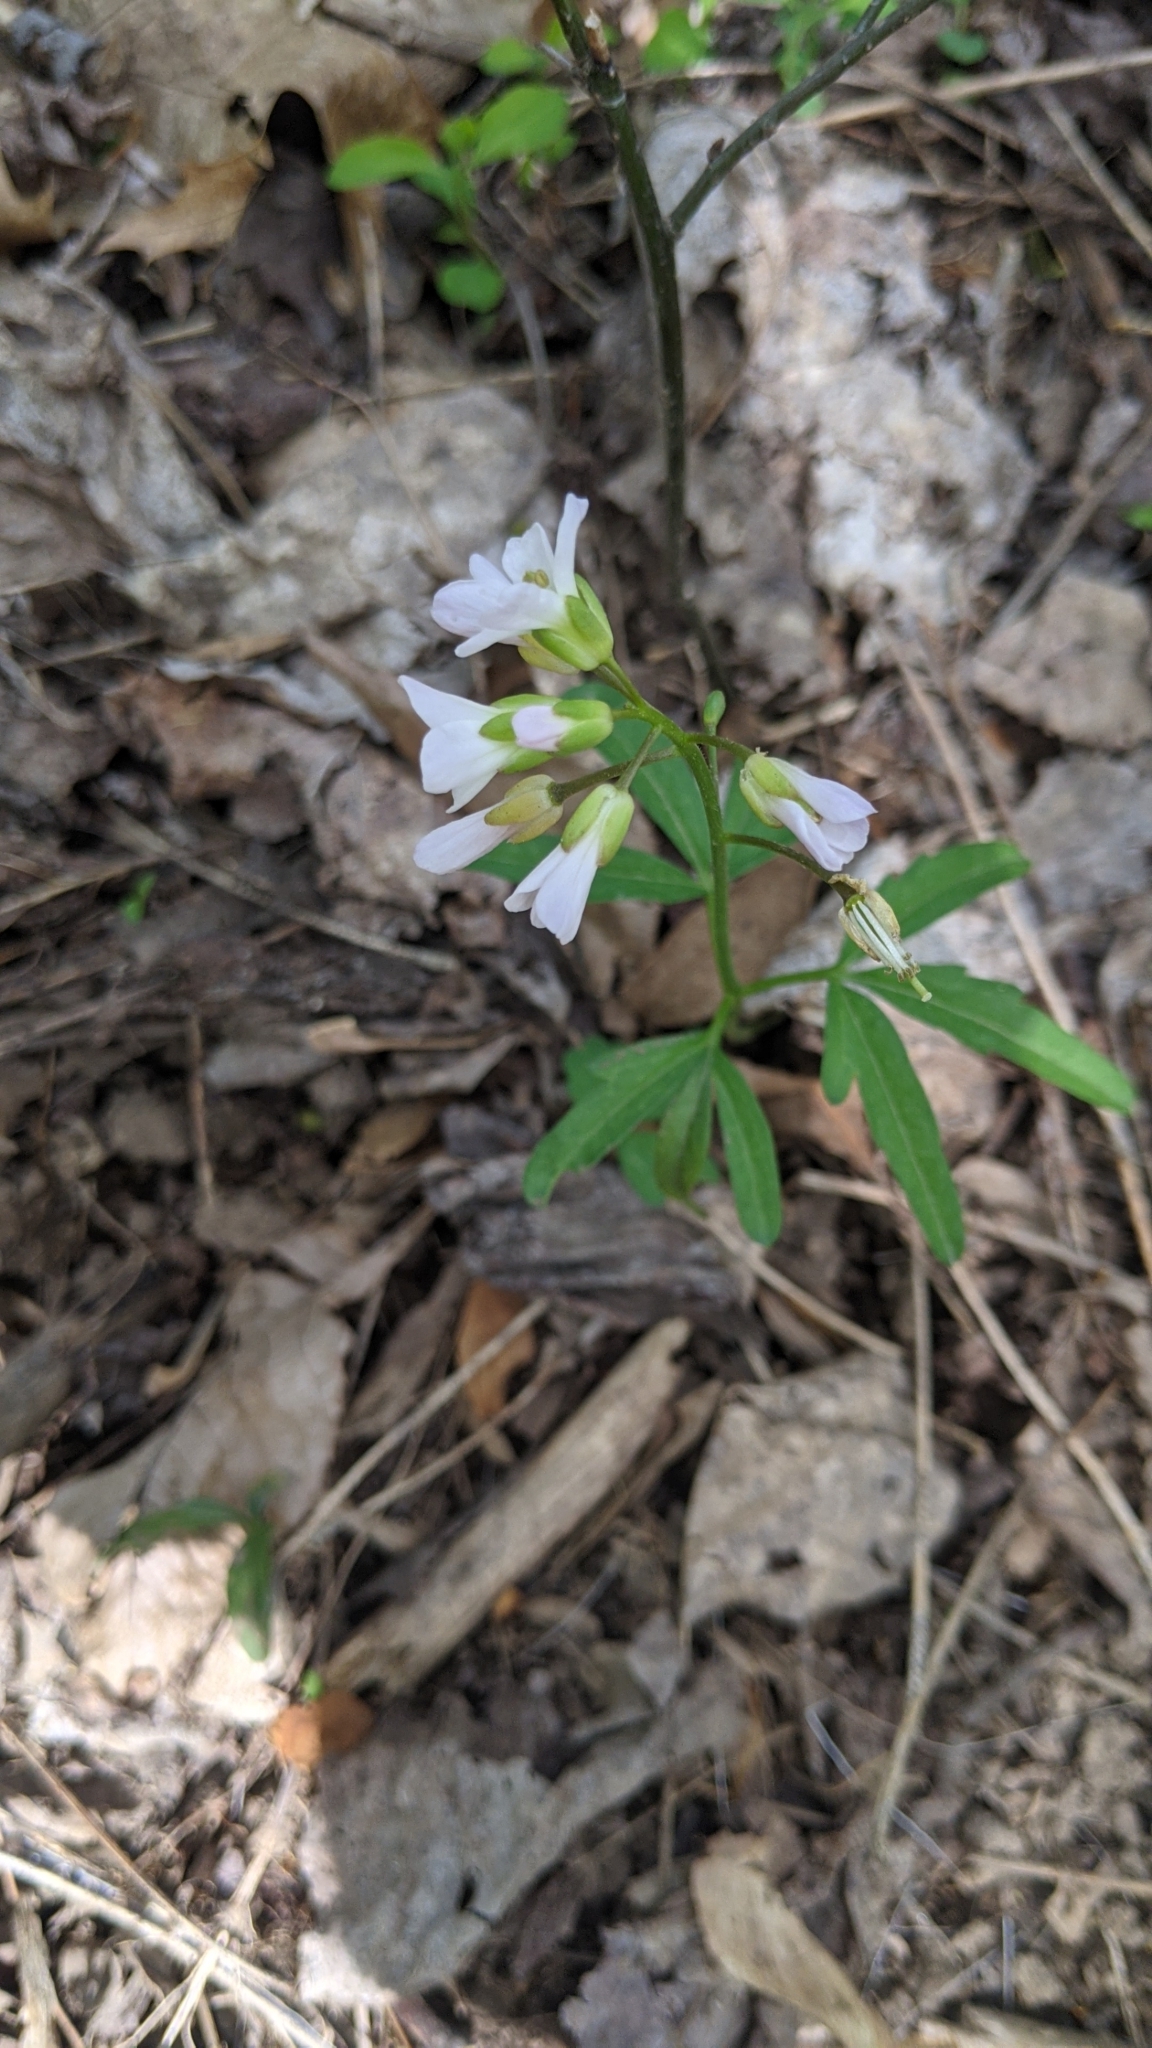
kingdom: Plantae
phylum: Tracheophyta
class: Magnoliopsida
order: Brassicales
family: Brassicaceae
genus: Cardamine
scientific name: Cardamine concatenata
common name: Cut-leaf toothcup
